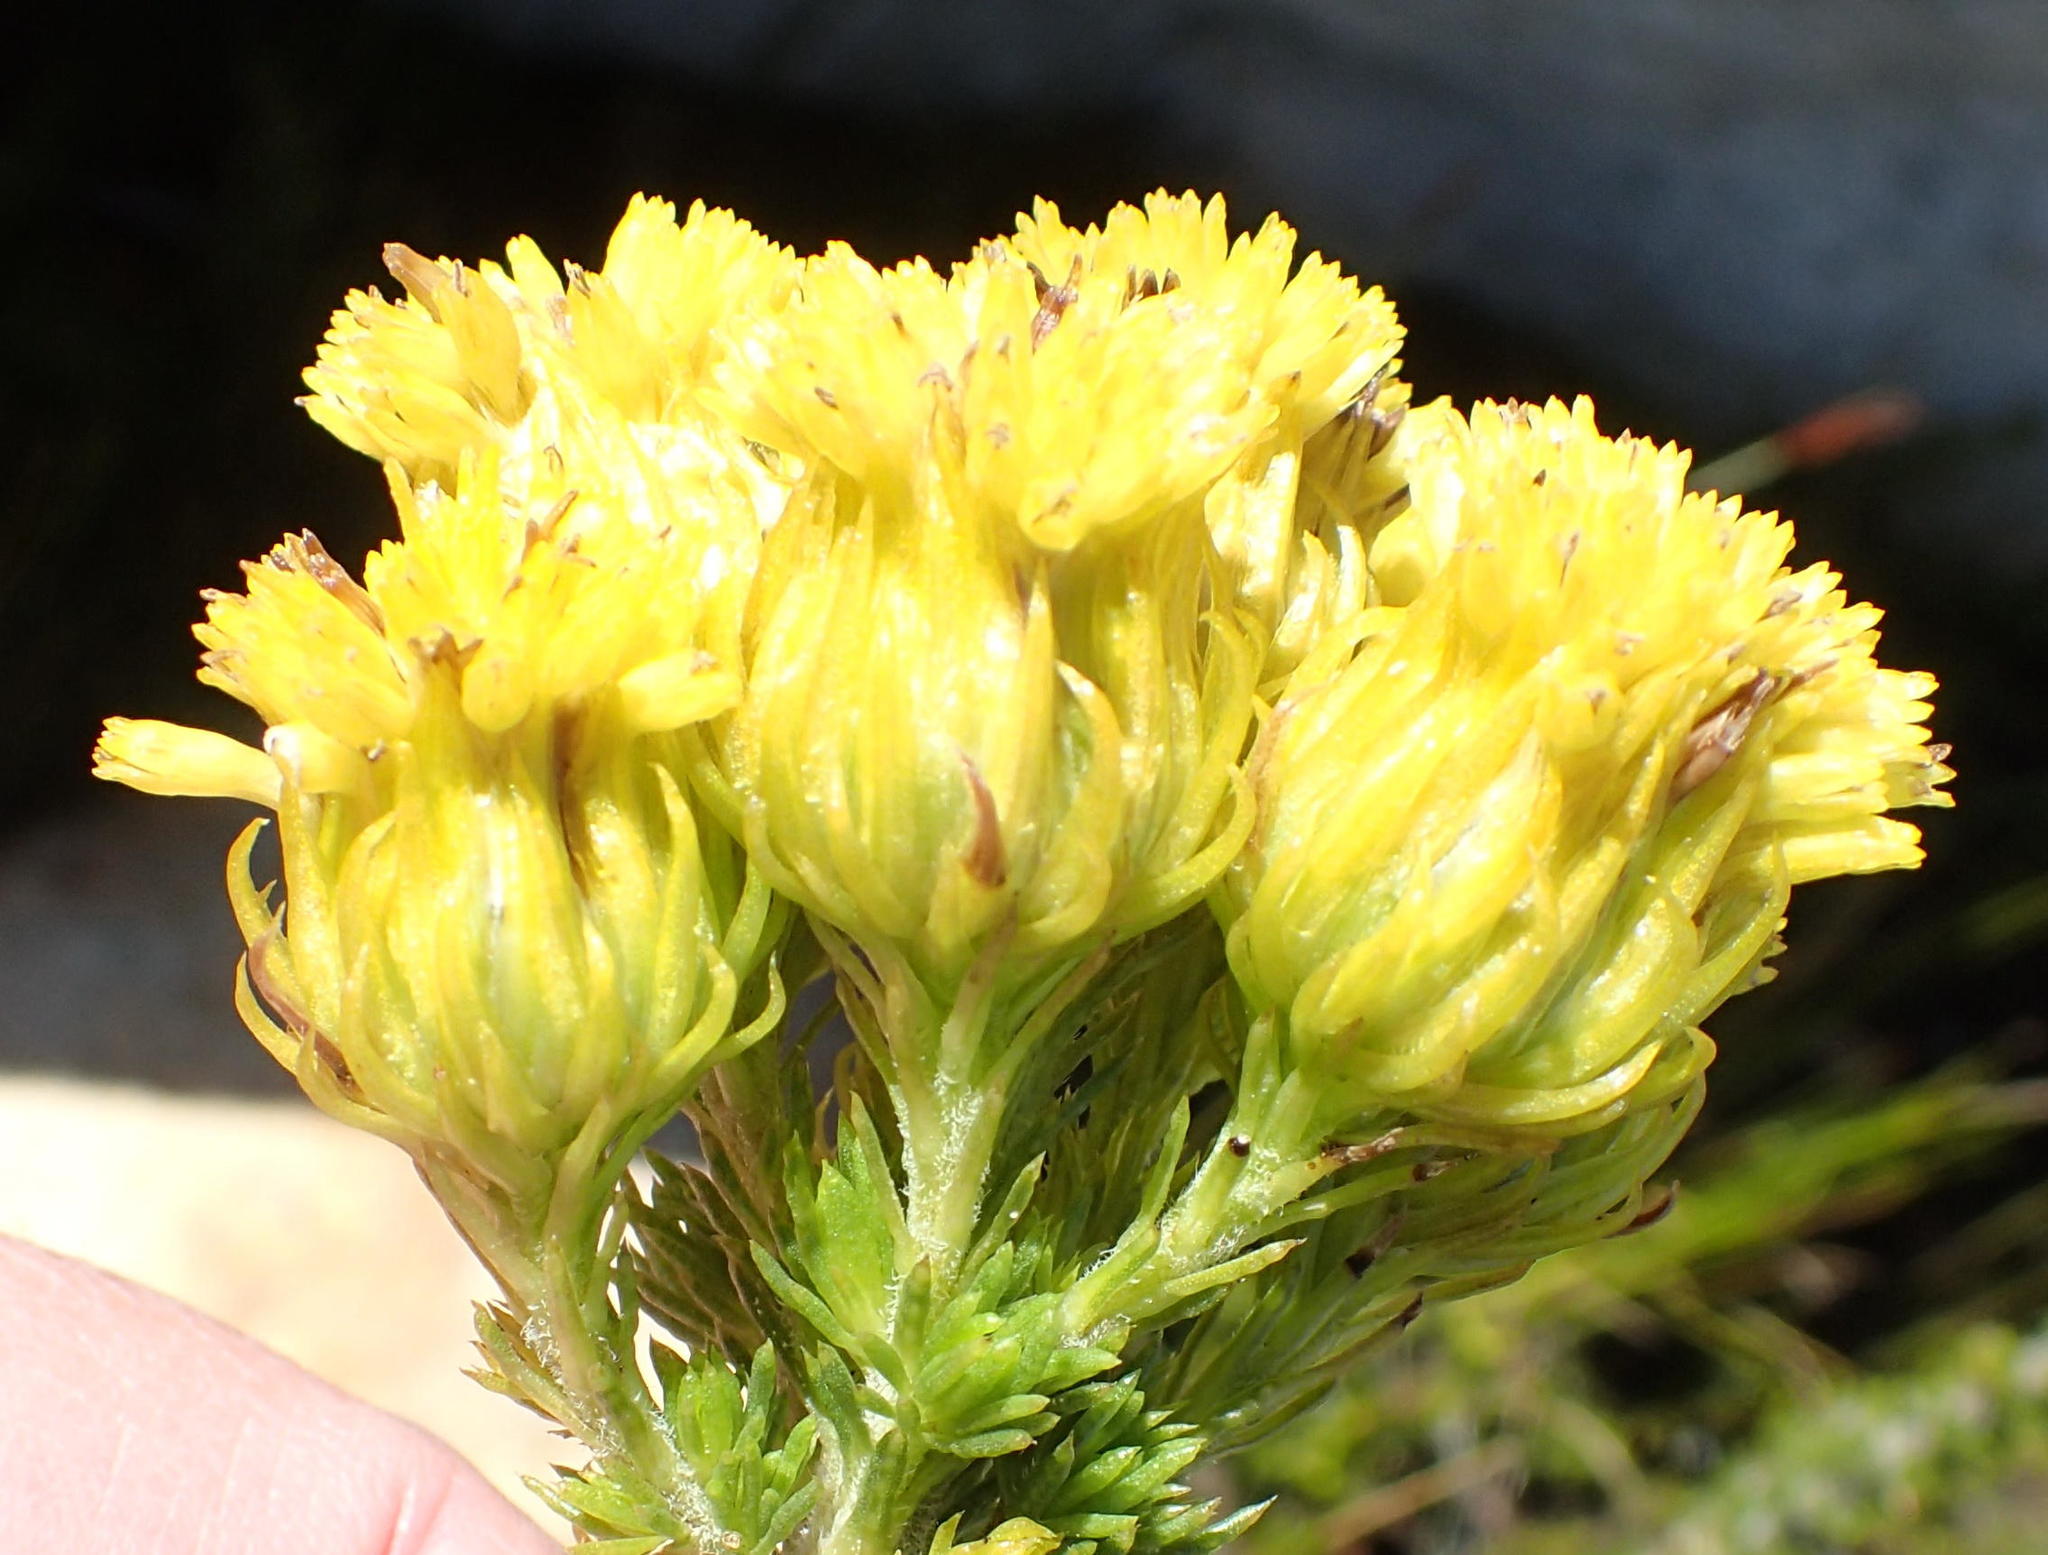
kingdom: Plantae
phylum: Tracheophyta
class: Magnoliopsida
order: Asterales
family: Asteraceae
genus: Pteronia
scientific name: Pteronia camphorata
